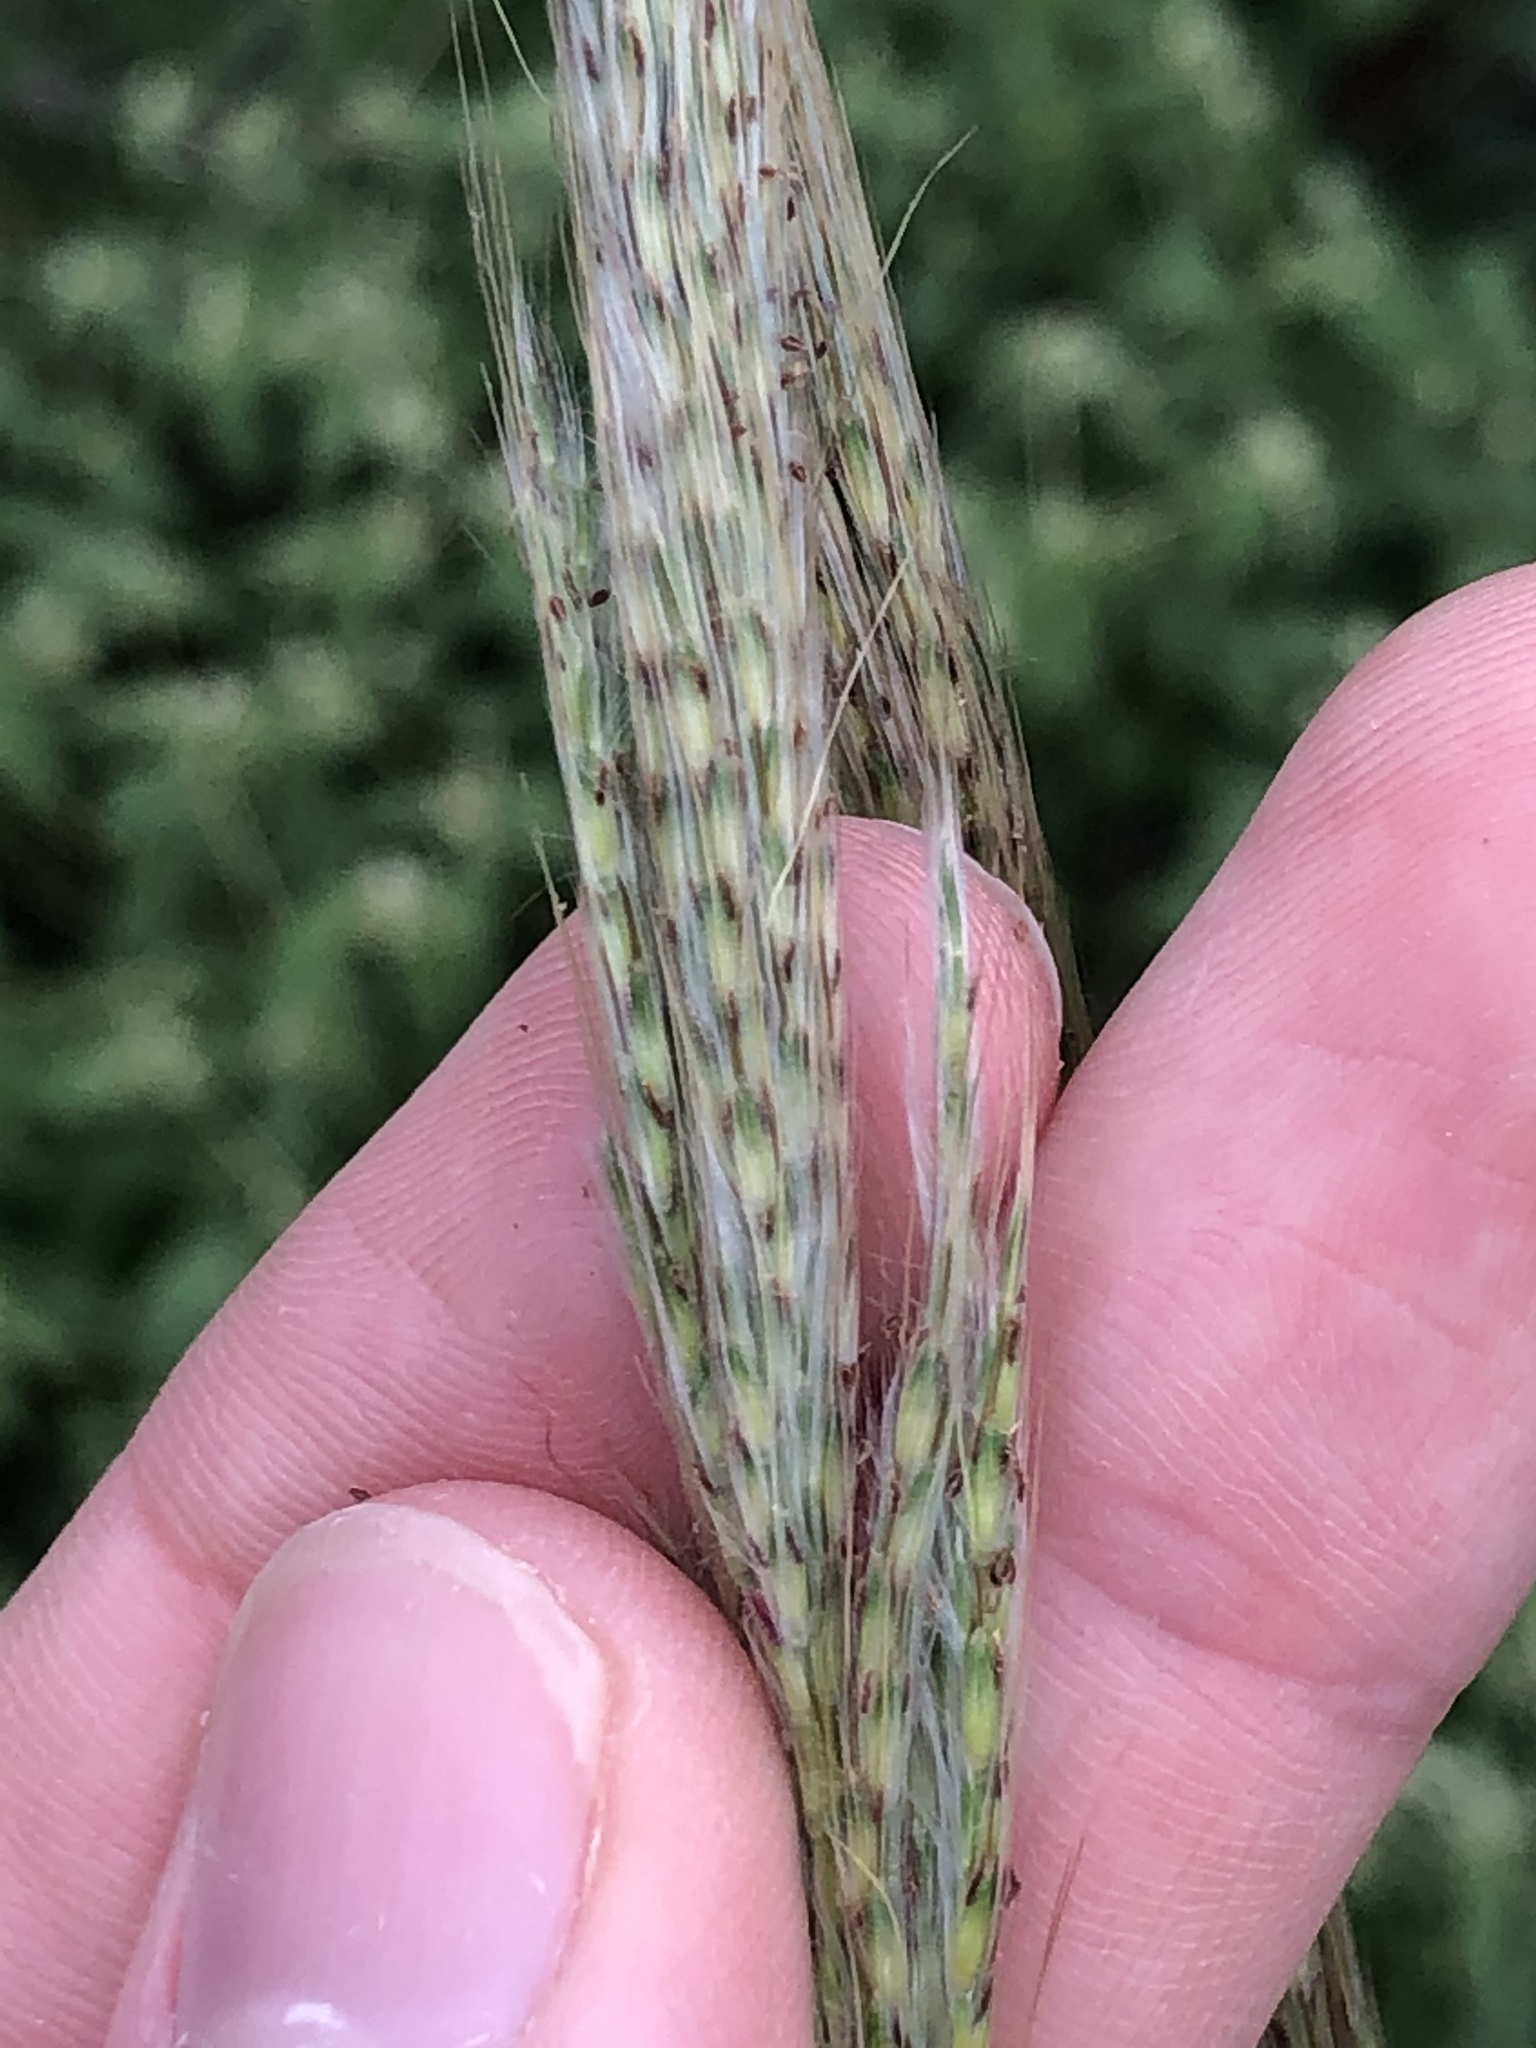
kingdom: Plantae
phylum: Tracheophyta
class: Liliopsida
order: Poales
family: Poaceae
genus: Bothriochloa
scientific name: Bothriochloa longipaniculata
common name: Longspike silver bluestem
